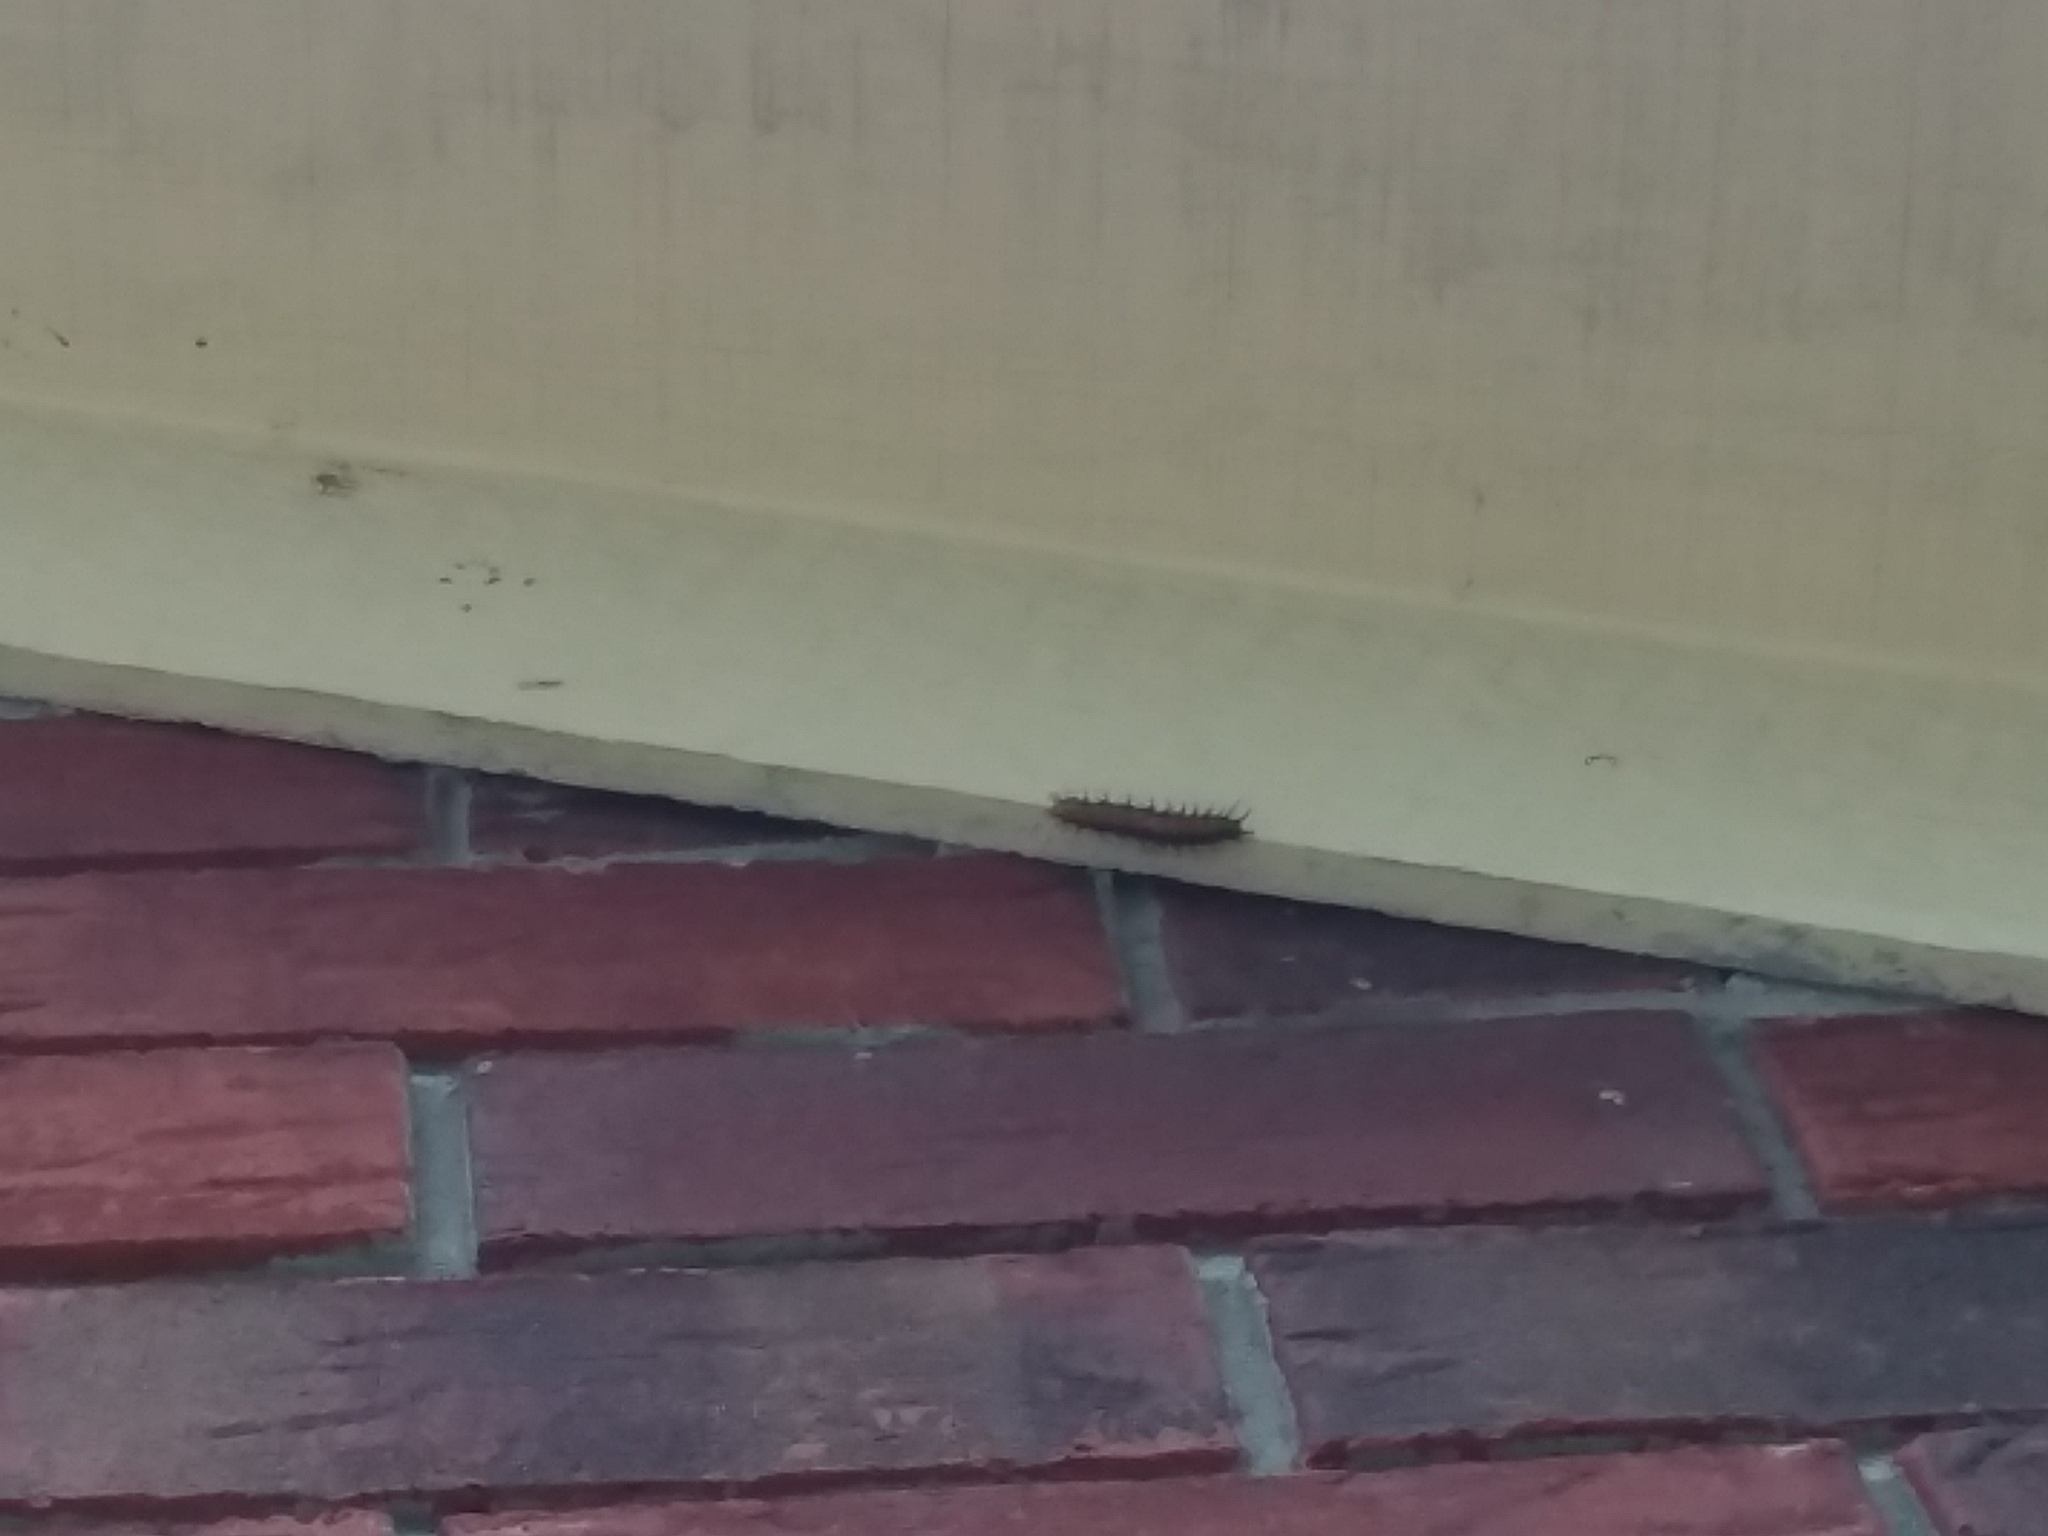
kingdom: Animalia
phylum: Arthropoda
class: Insecta
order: Lepidoptera
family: Nymphalidae
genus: Dione
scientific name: Dione vanillae
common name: Gulf fritillary
